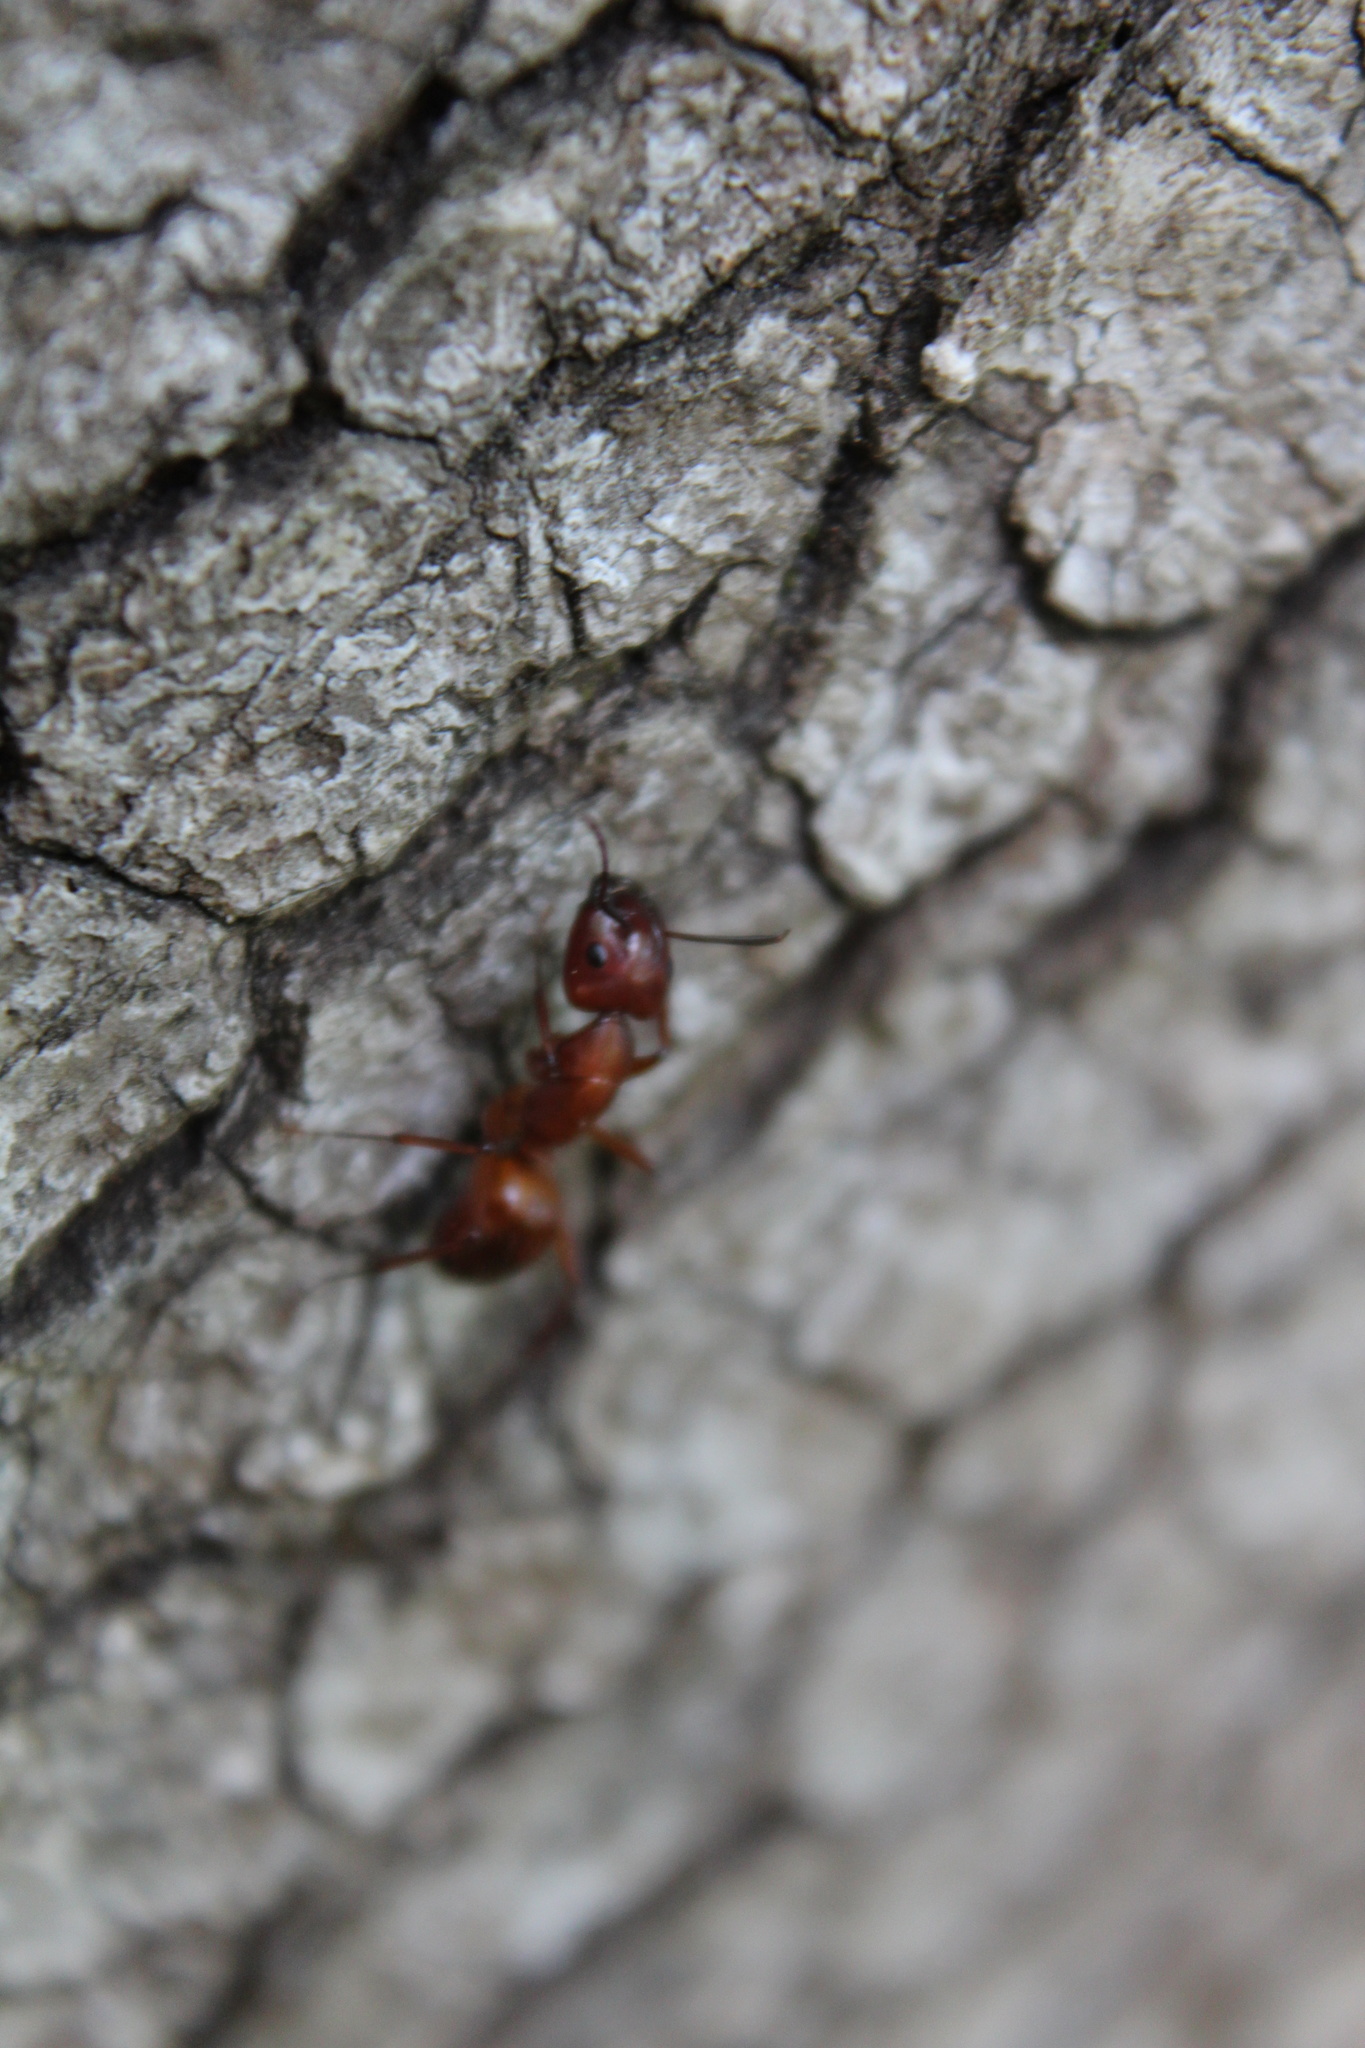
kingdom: Animalia
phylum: Arthropoda
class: Insecta
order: Hymenoptera
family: Formicidae
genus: Camponotus
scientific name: Camponotus castaneus
